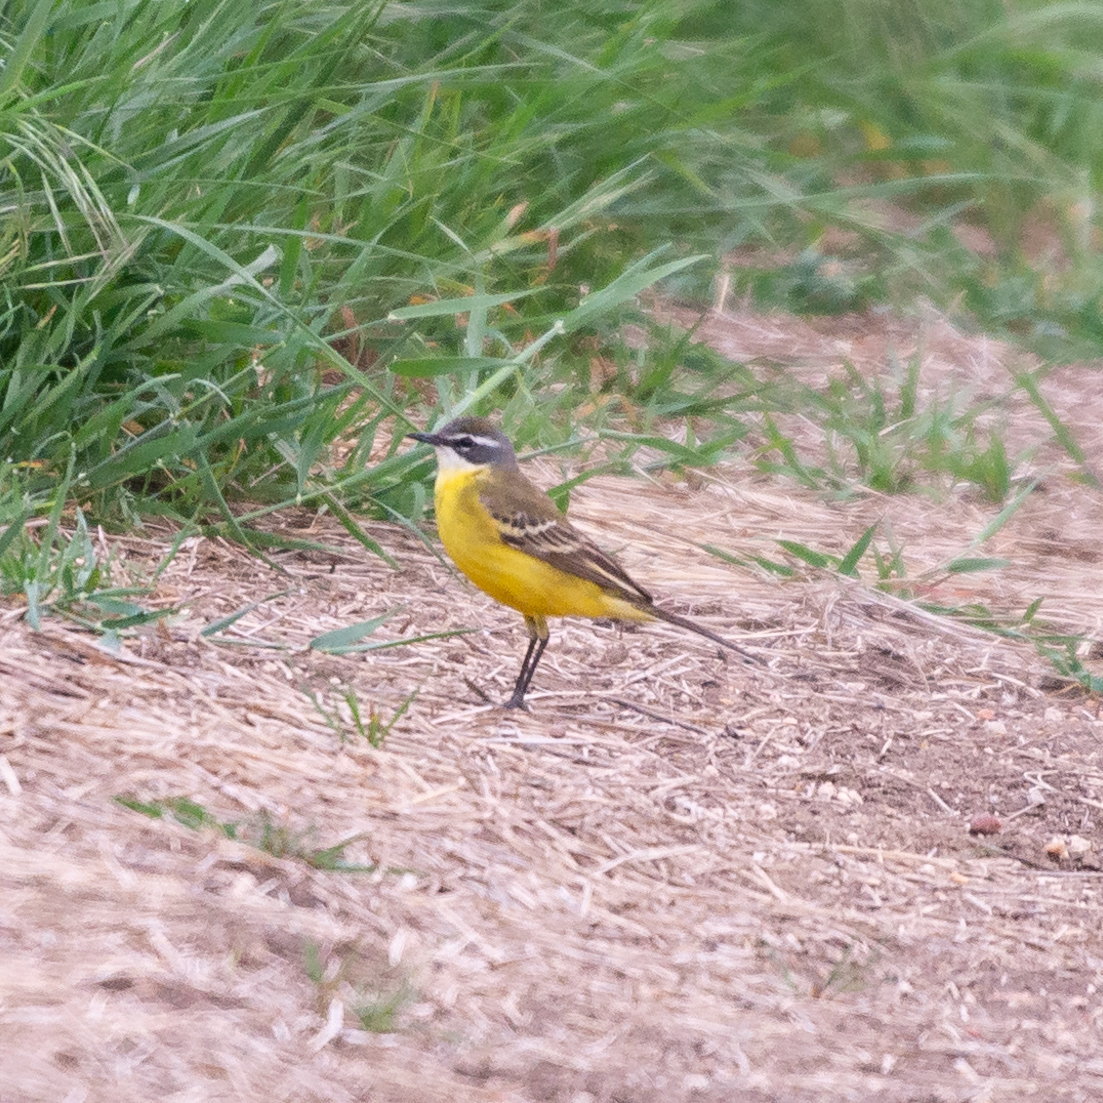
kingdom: Animalia
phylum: Chordata
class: Aves
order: Passeriformes
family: Motacillidae
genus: Motacilla
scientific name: Motacilla flava
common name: Western yellow wagtail
